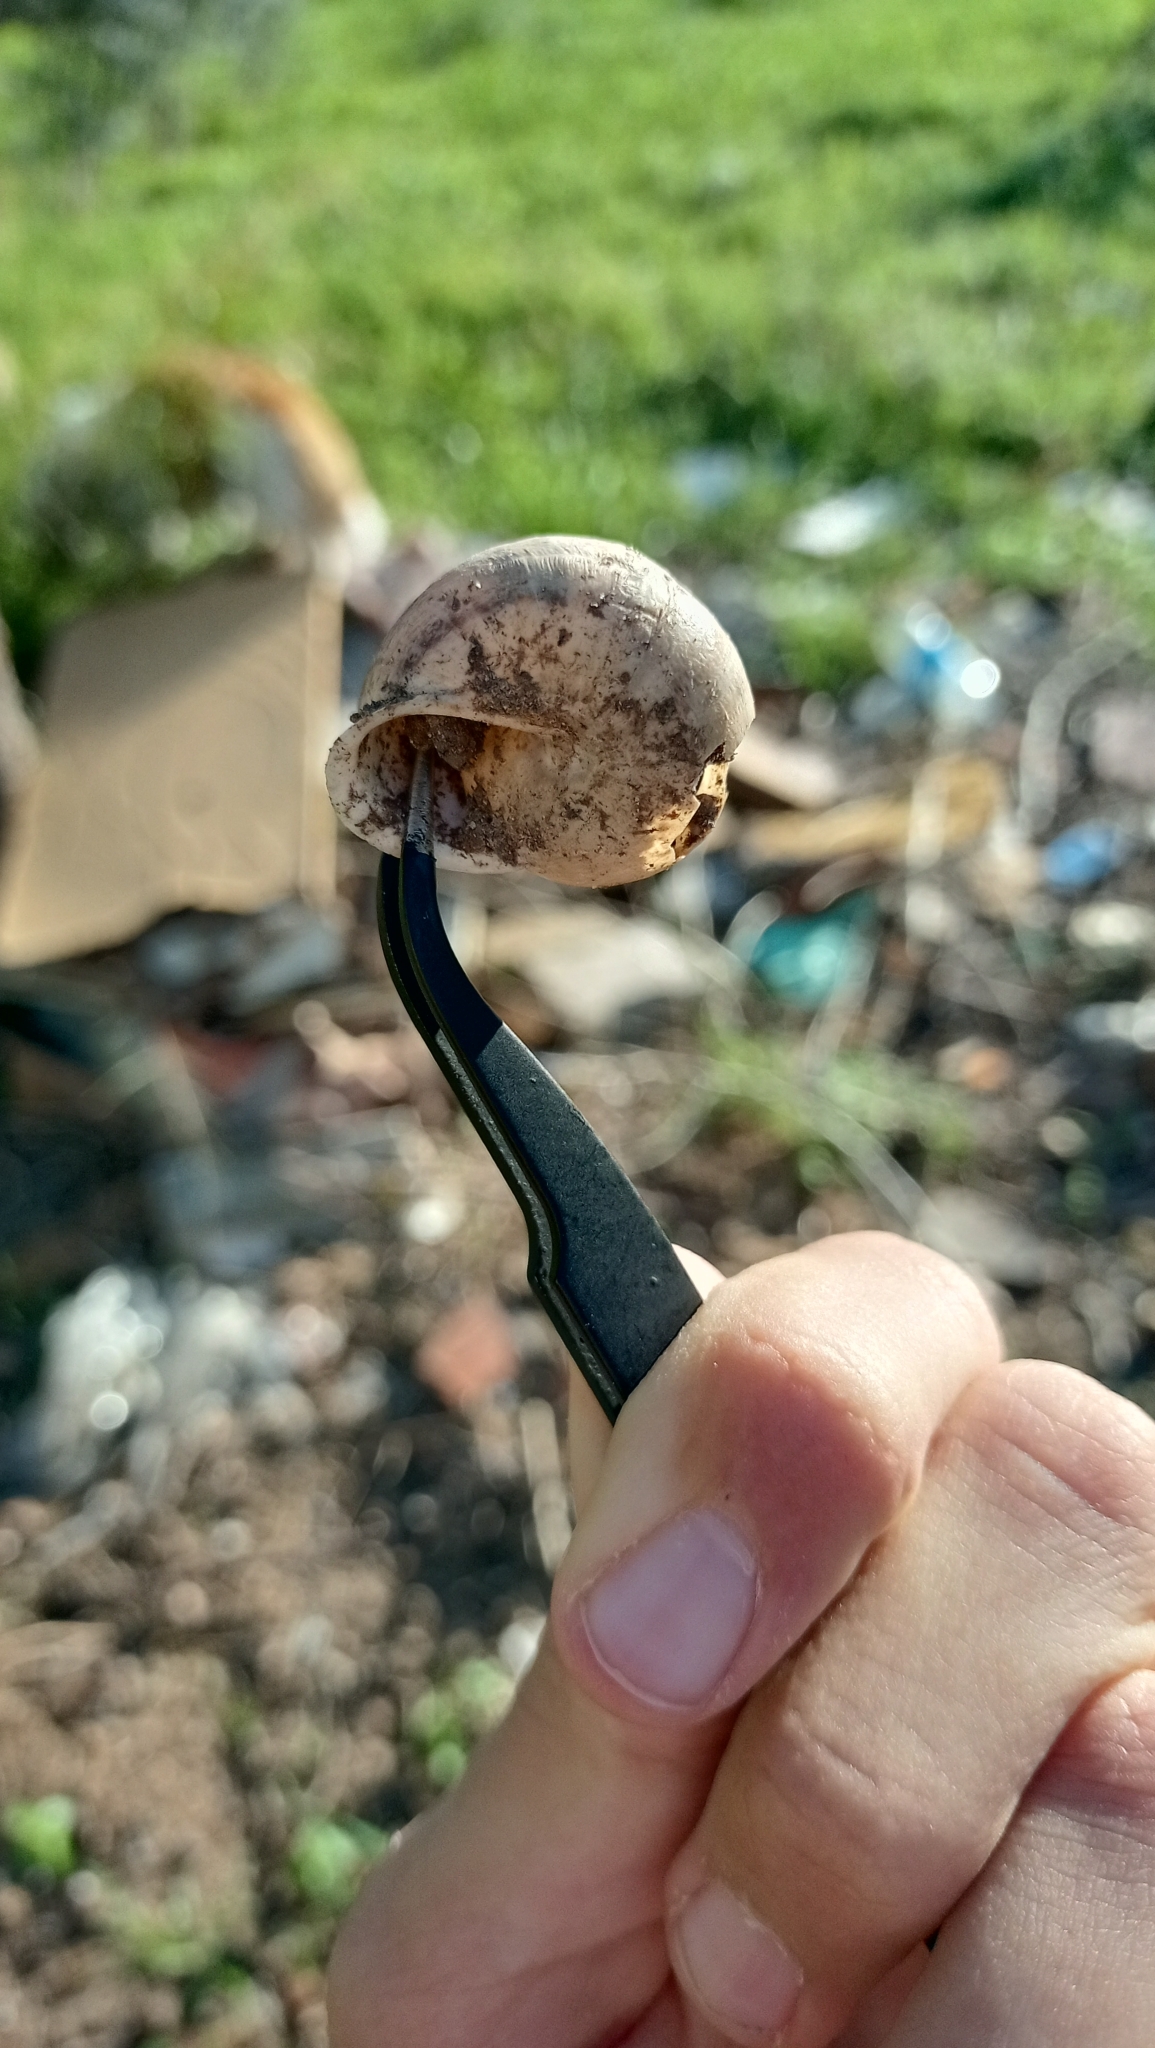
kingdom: Animalia
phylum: Mollusca
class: Gastropoda
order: Stylommatophora
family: Helicidae
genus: Eobania
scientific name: Eobania vermiculata
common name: Chocolateband snail
